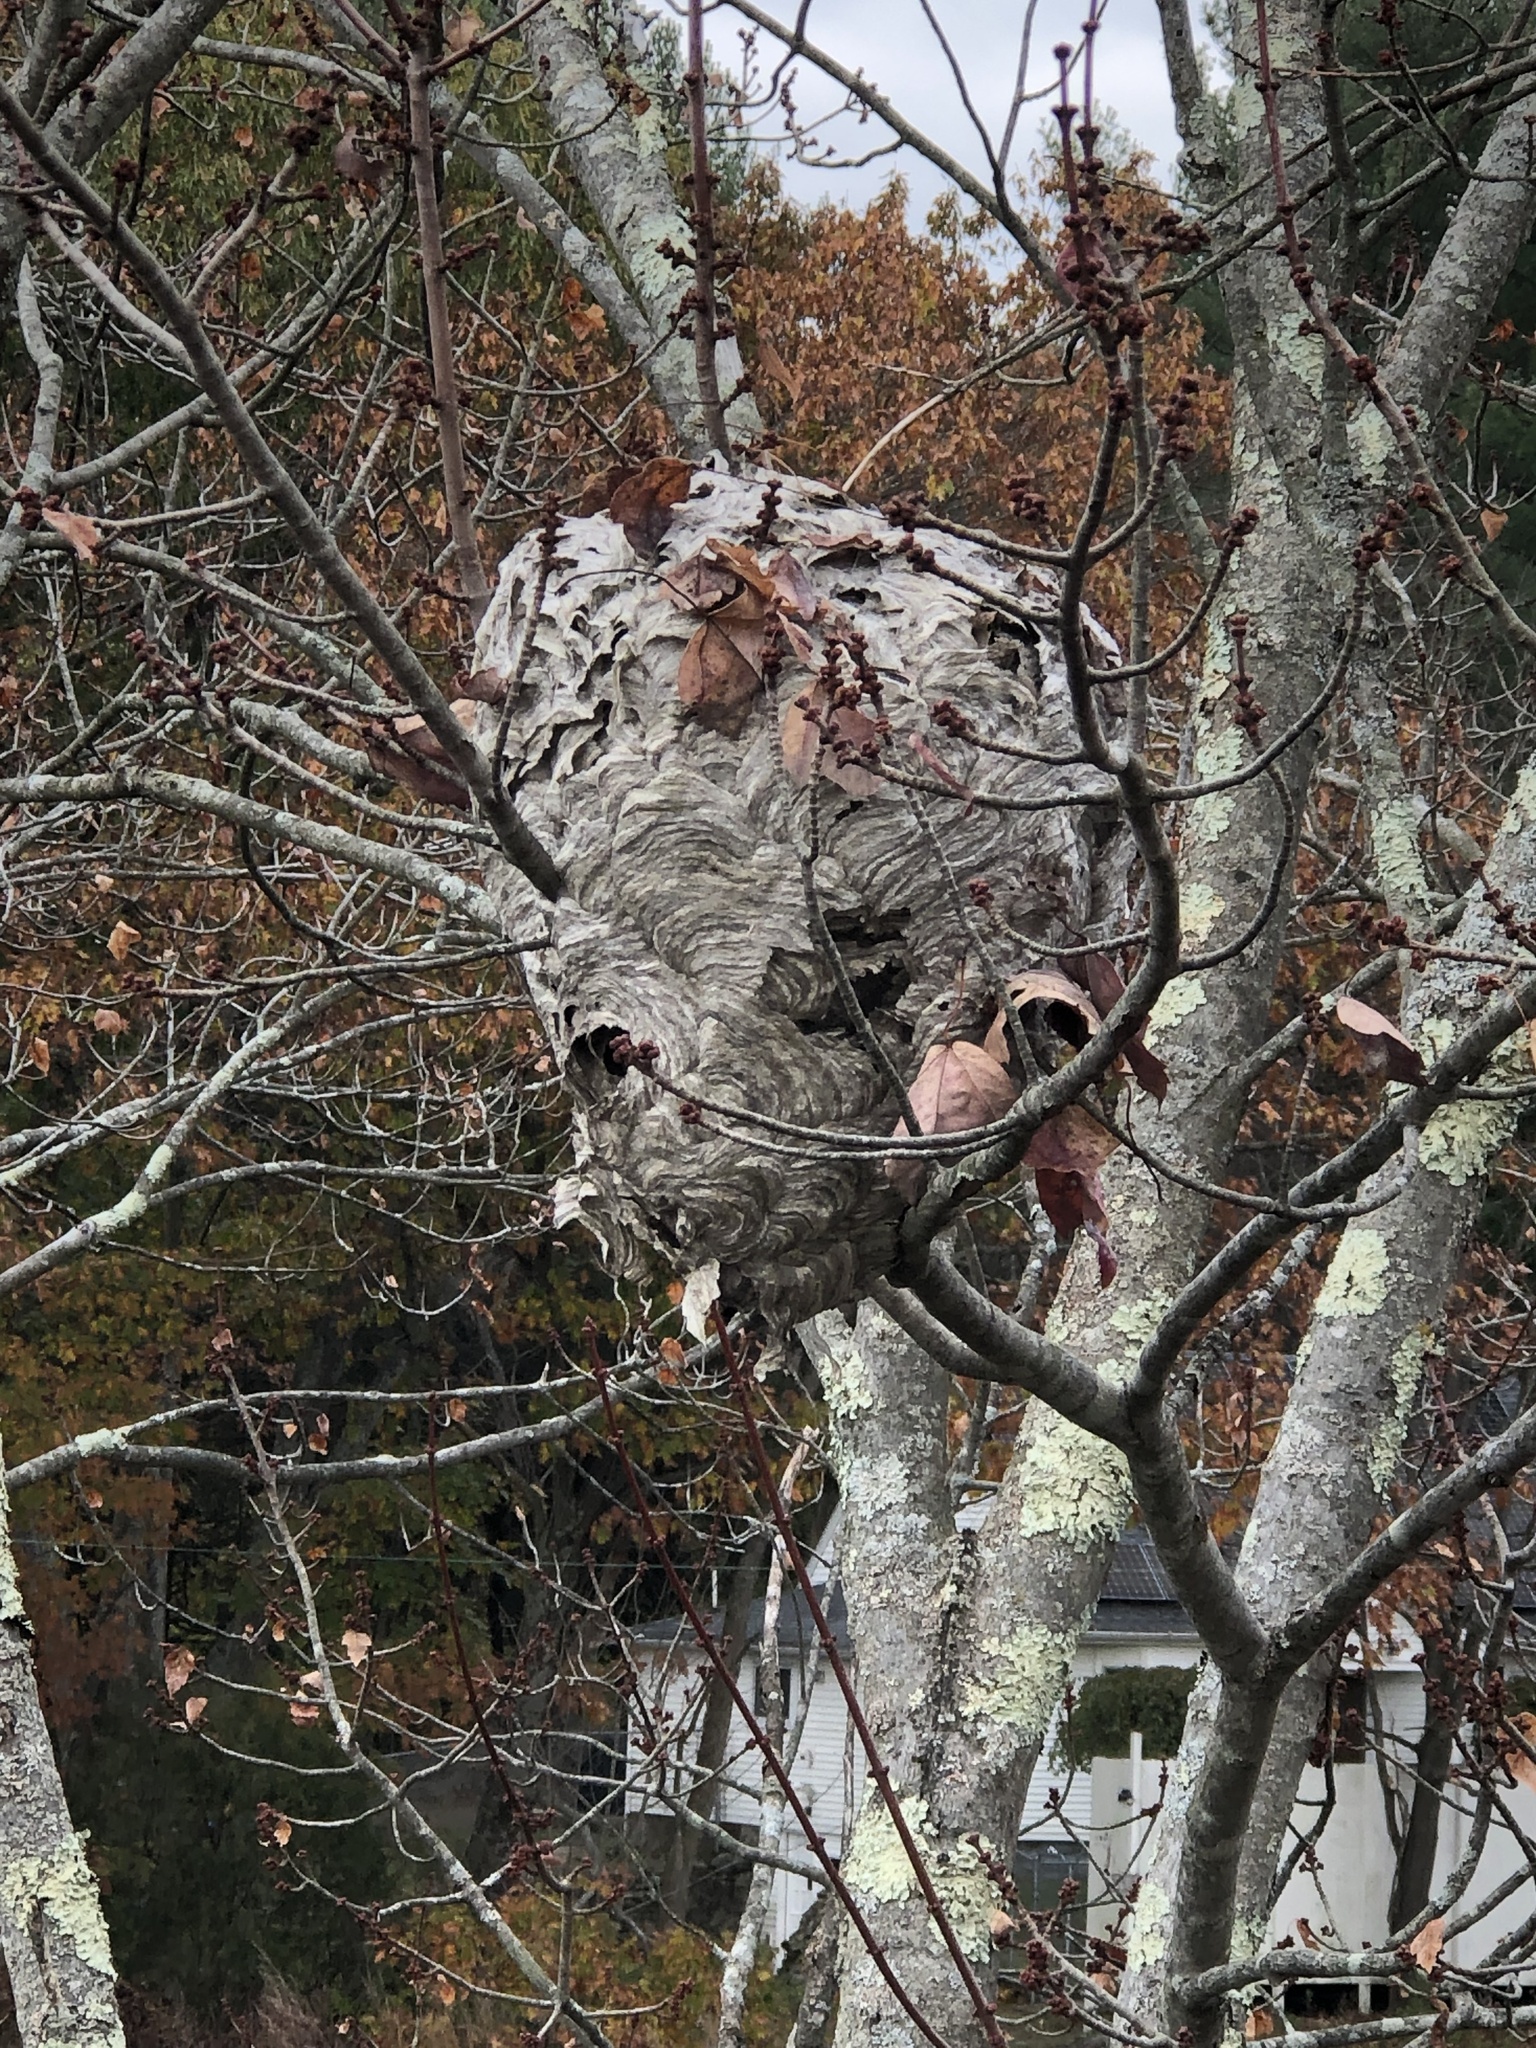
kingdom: Animalia
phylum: Arthropoda
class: Insecta
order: Hymenoptera
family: Vespidae
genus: Dolichovespula
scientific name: Dolichovespula maculata
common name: Bald-faced hornet
